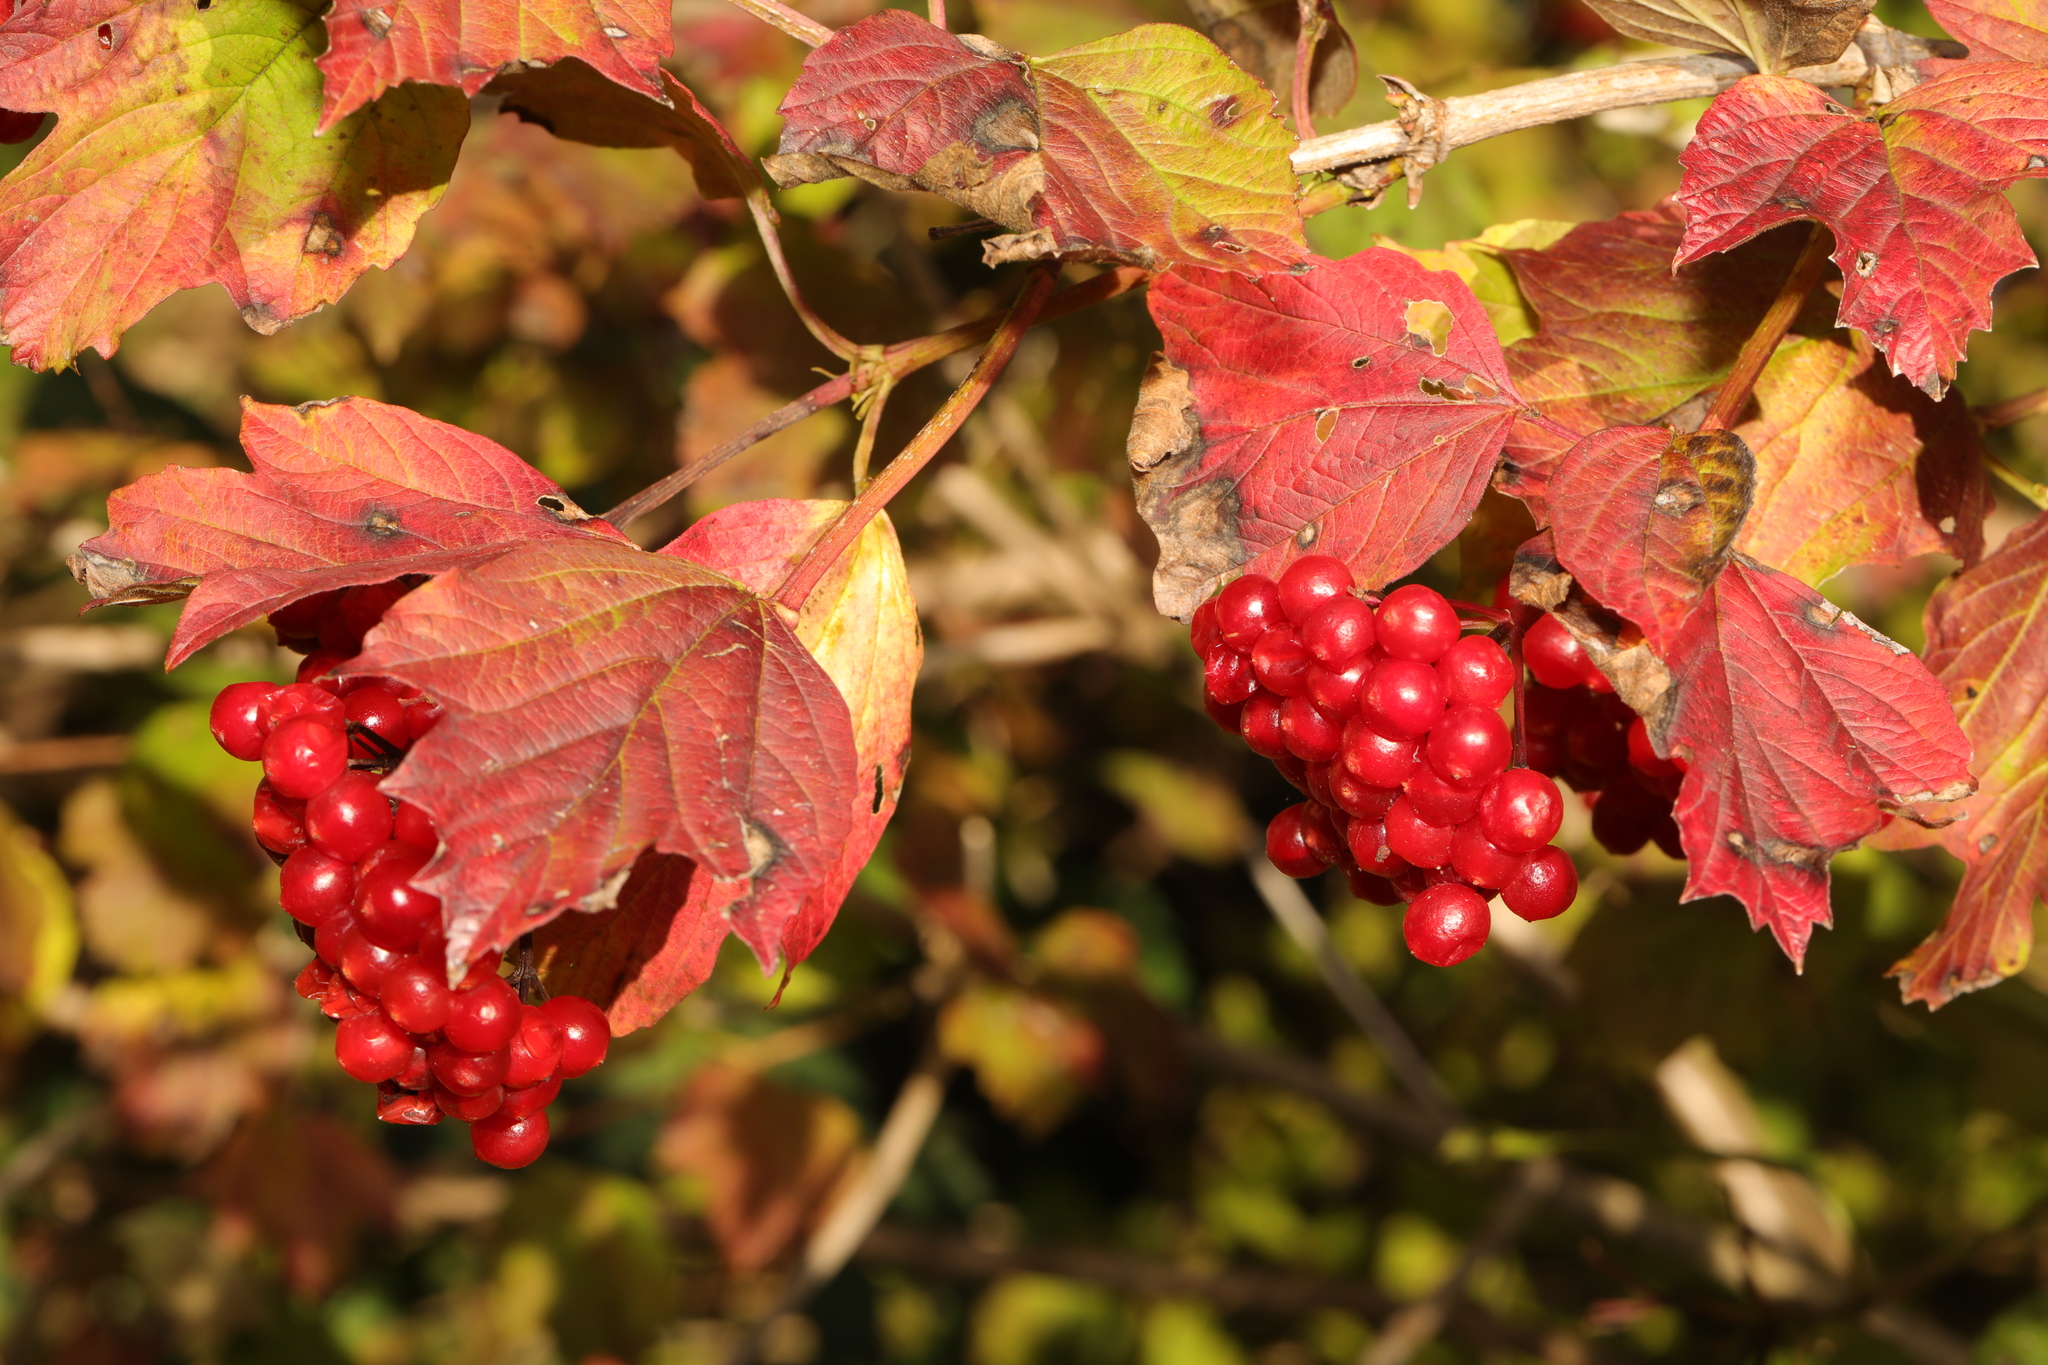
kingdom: Plantae
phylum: Tracheophyta
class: Magnoliopsida
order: Dipsacales
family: Viburnaceae
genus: Viburnum
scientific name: Viburnum opulus
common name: Guelder-rose
